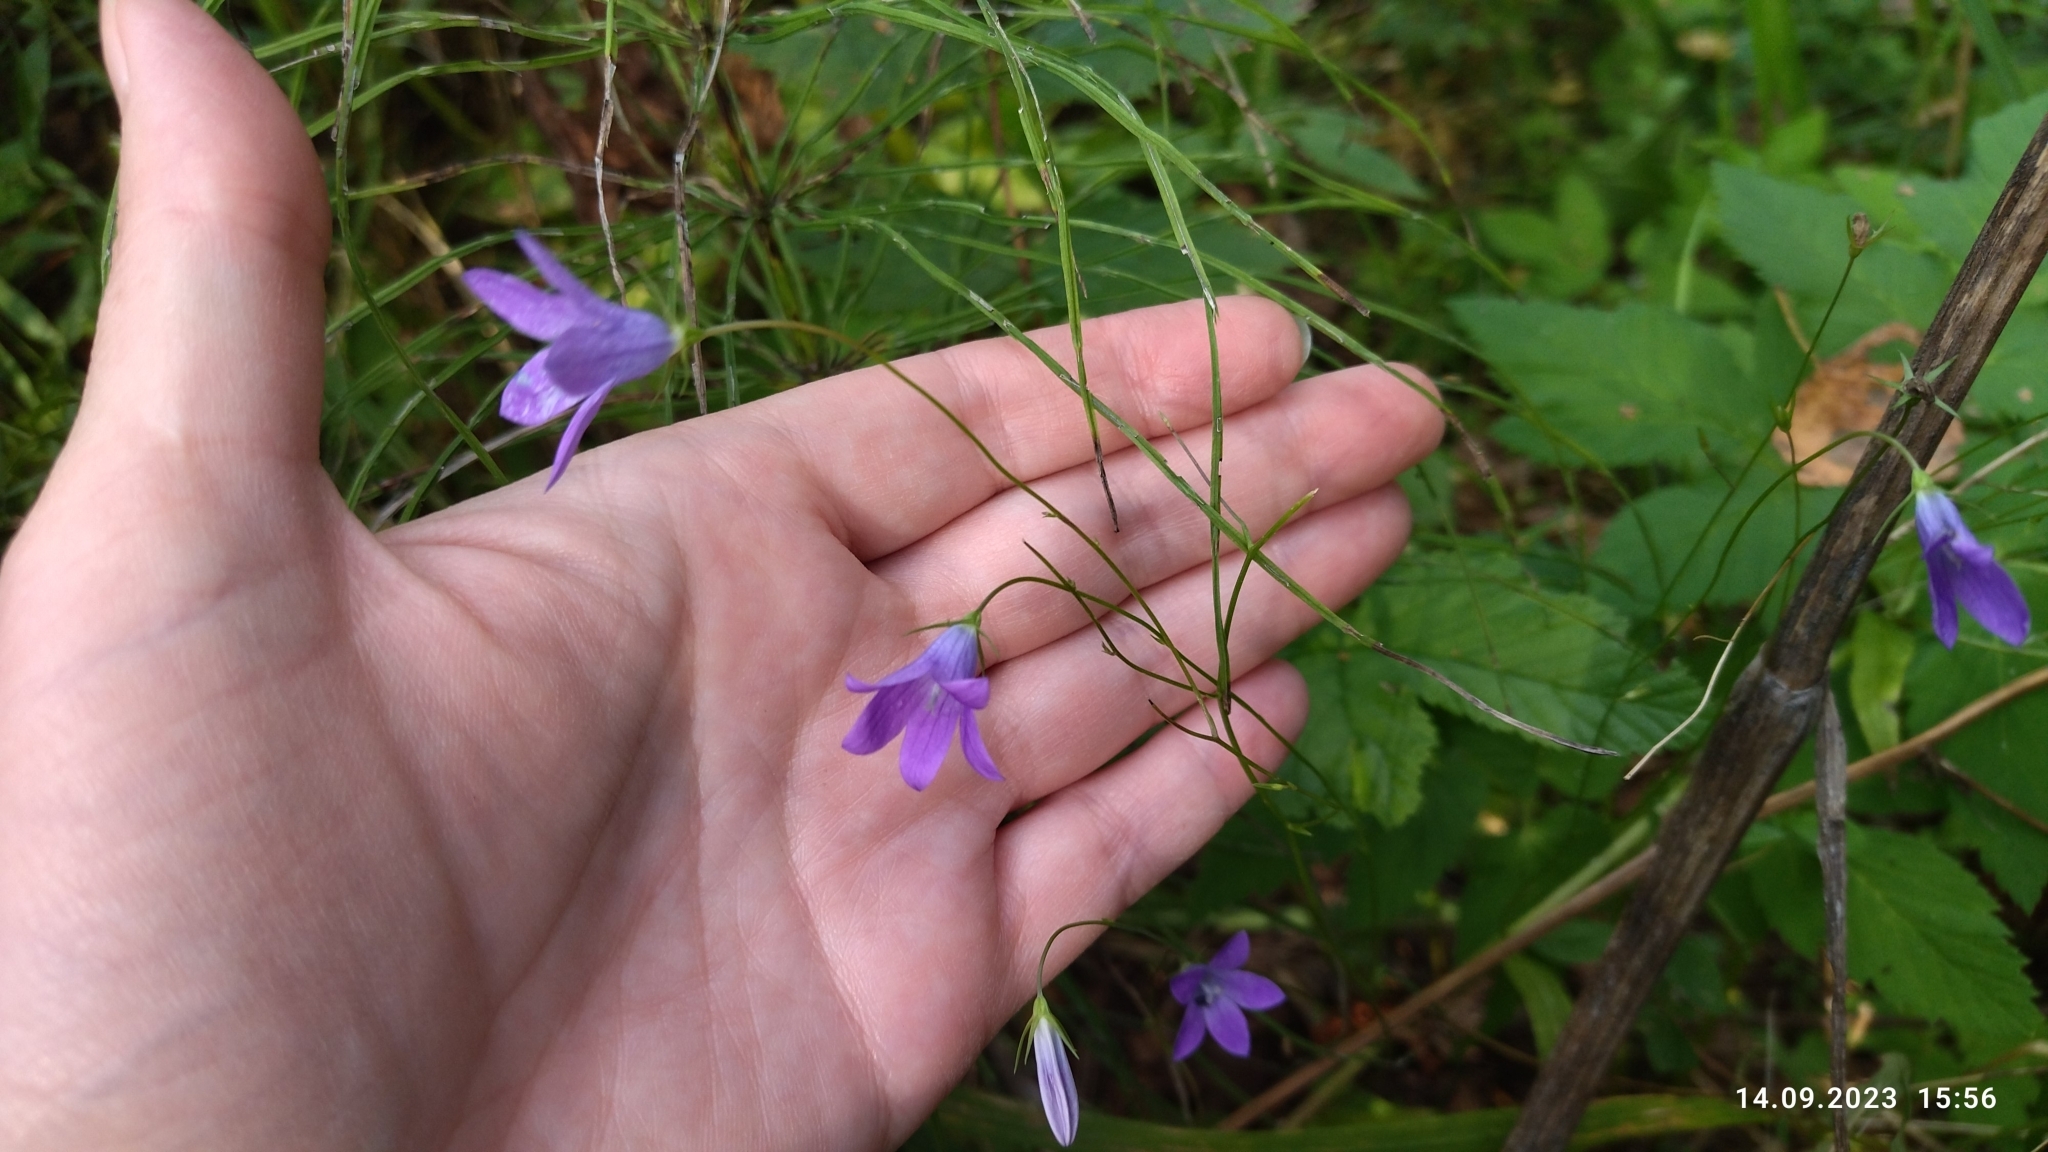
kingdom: Plantae
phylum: Tracheophyta
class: Magnoliopsida
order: Asterales
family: Campanulaceae
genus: Campanula
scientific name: Campanula patula
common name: Spreading bellflower
